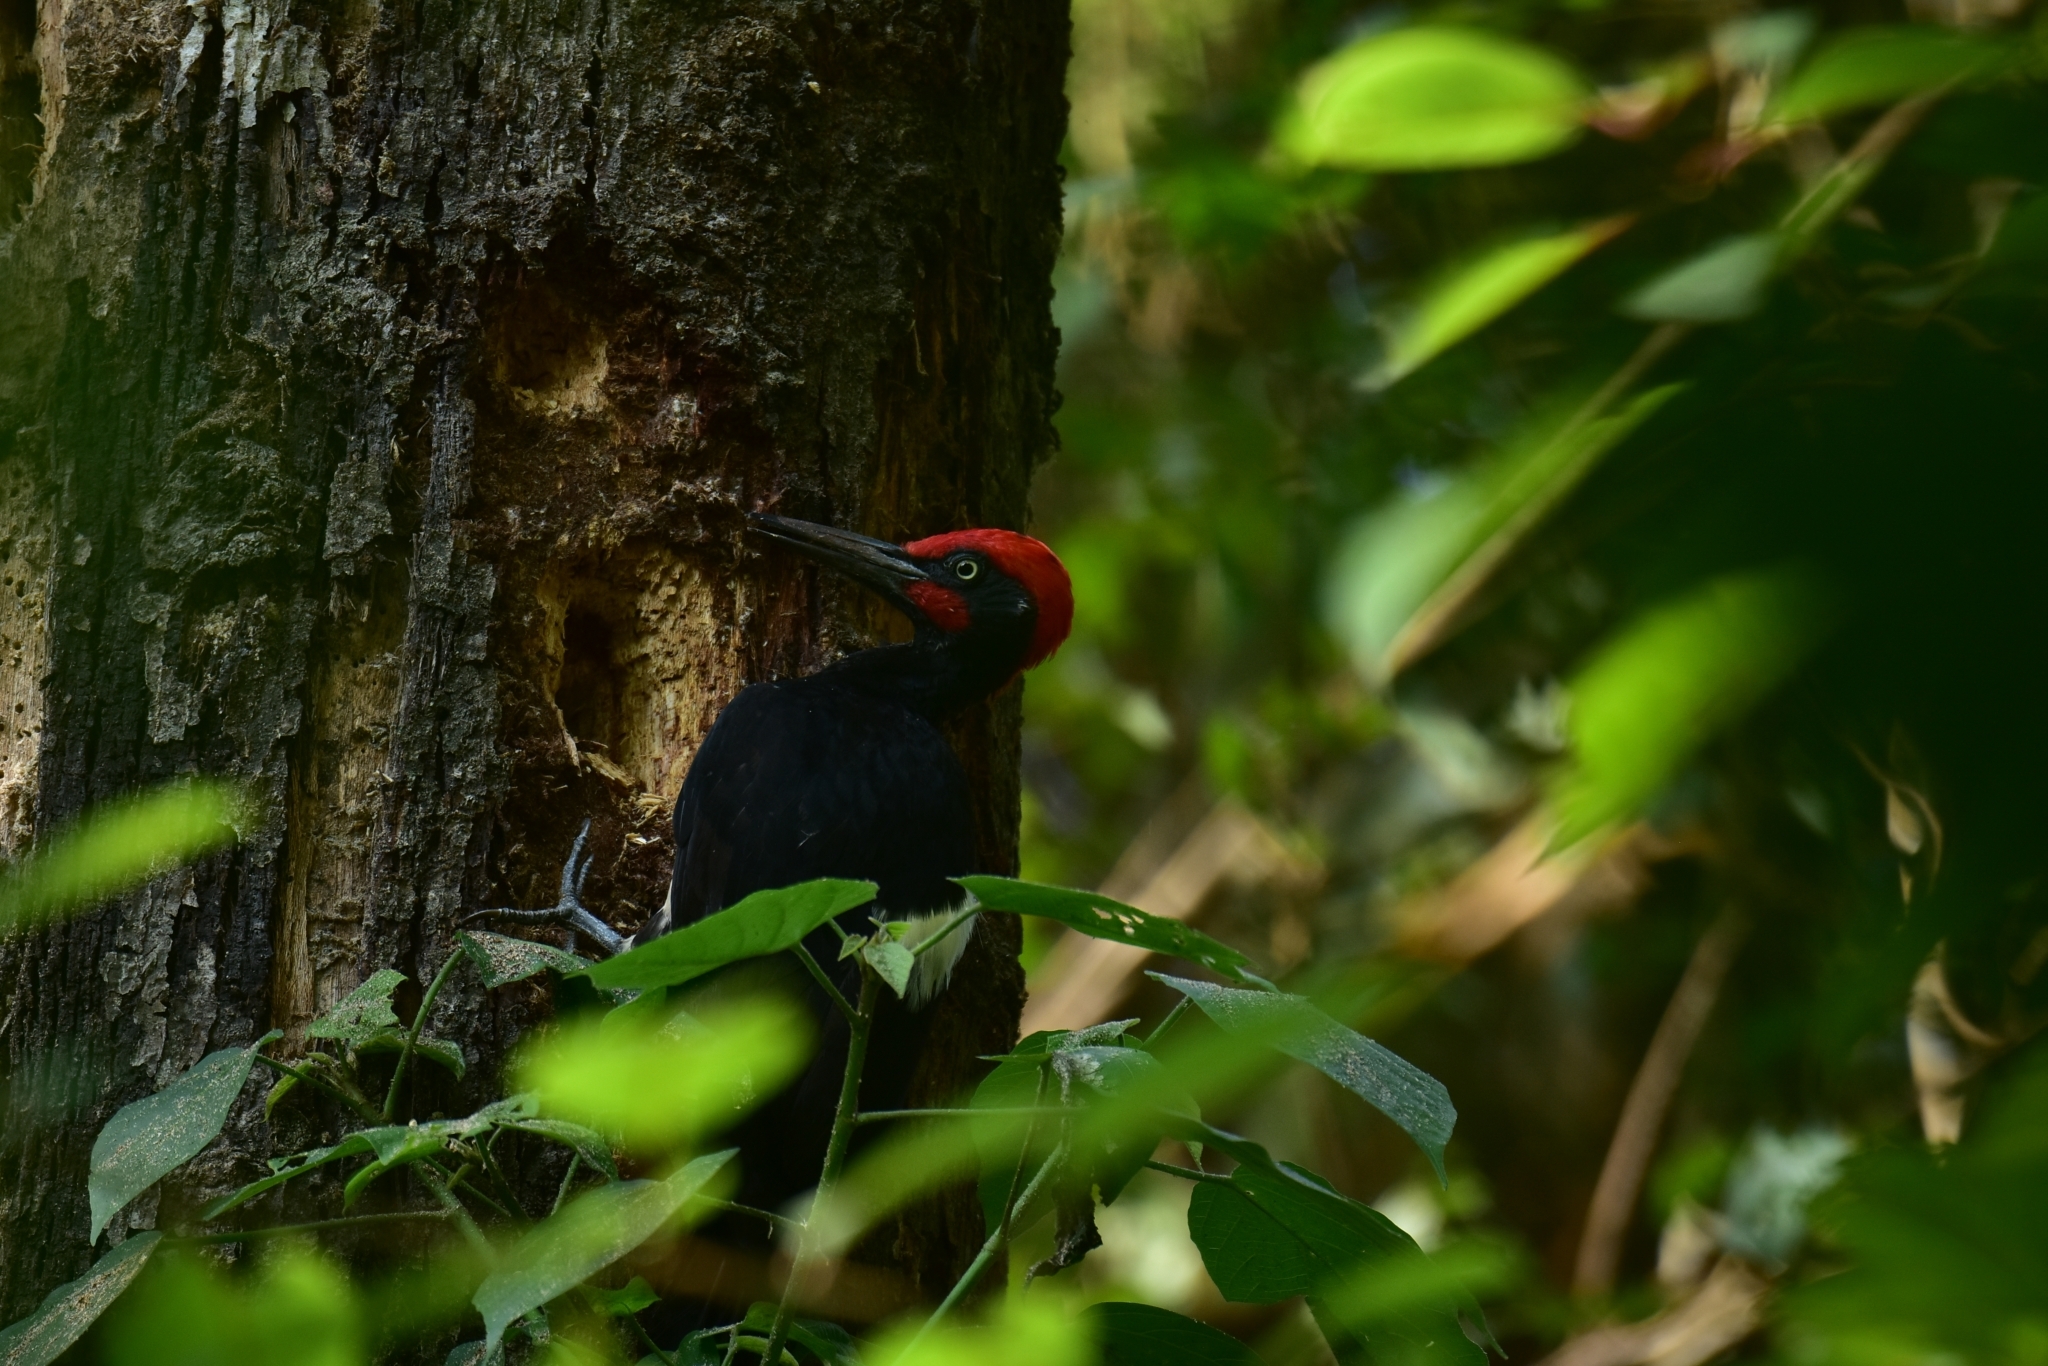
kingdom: Animalia
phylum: Chordata
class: Aves
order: Piciformes
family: Picidae
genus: Dryocopus
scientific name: Dryocopus javensis
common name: White-bellied woodpecker
